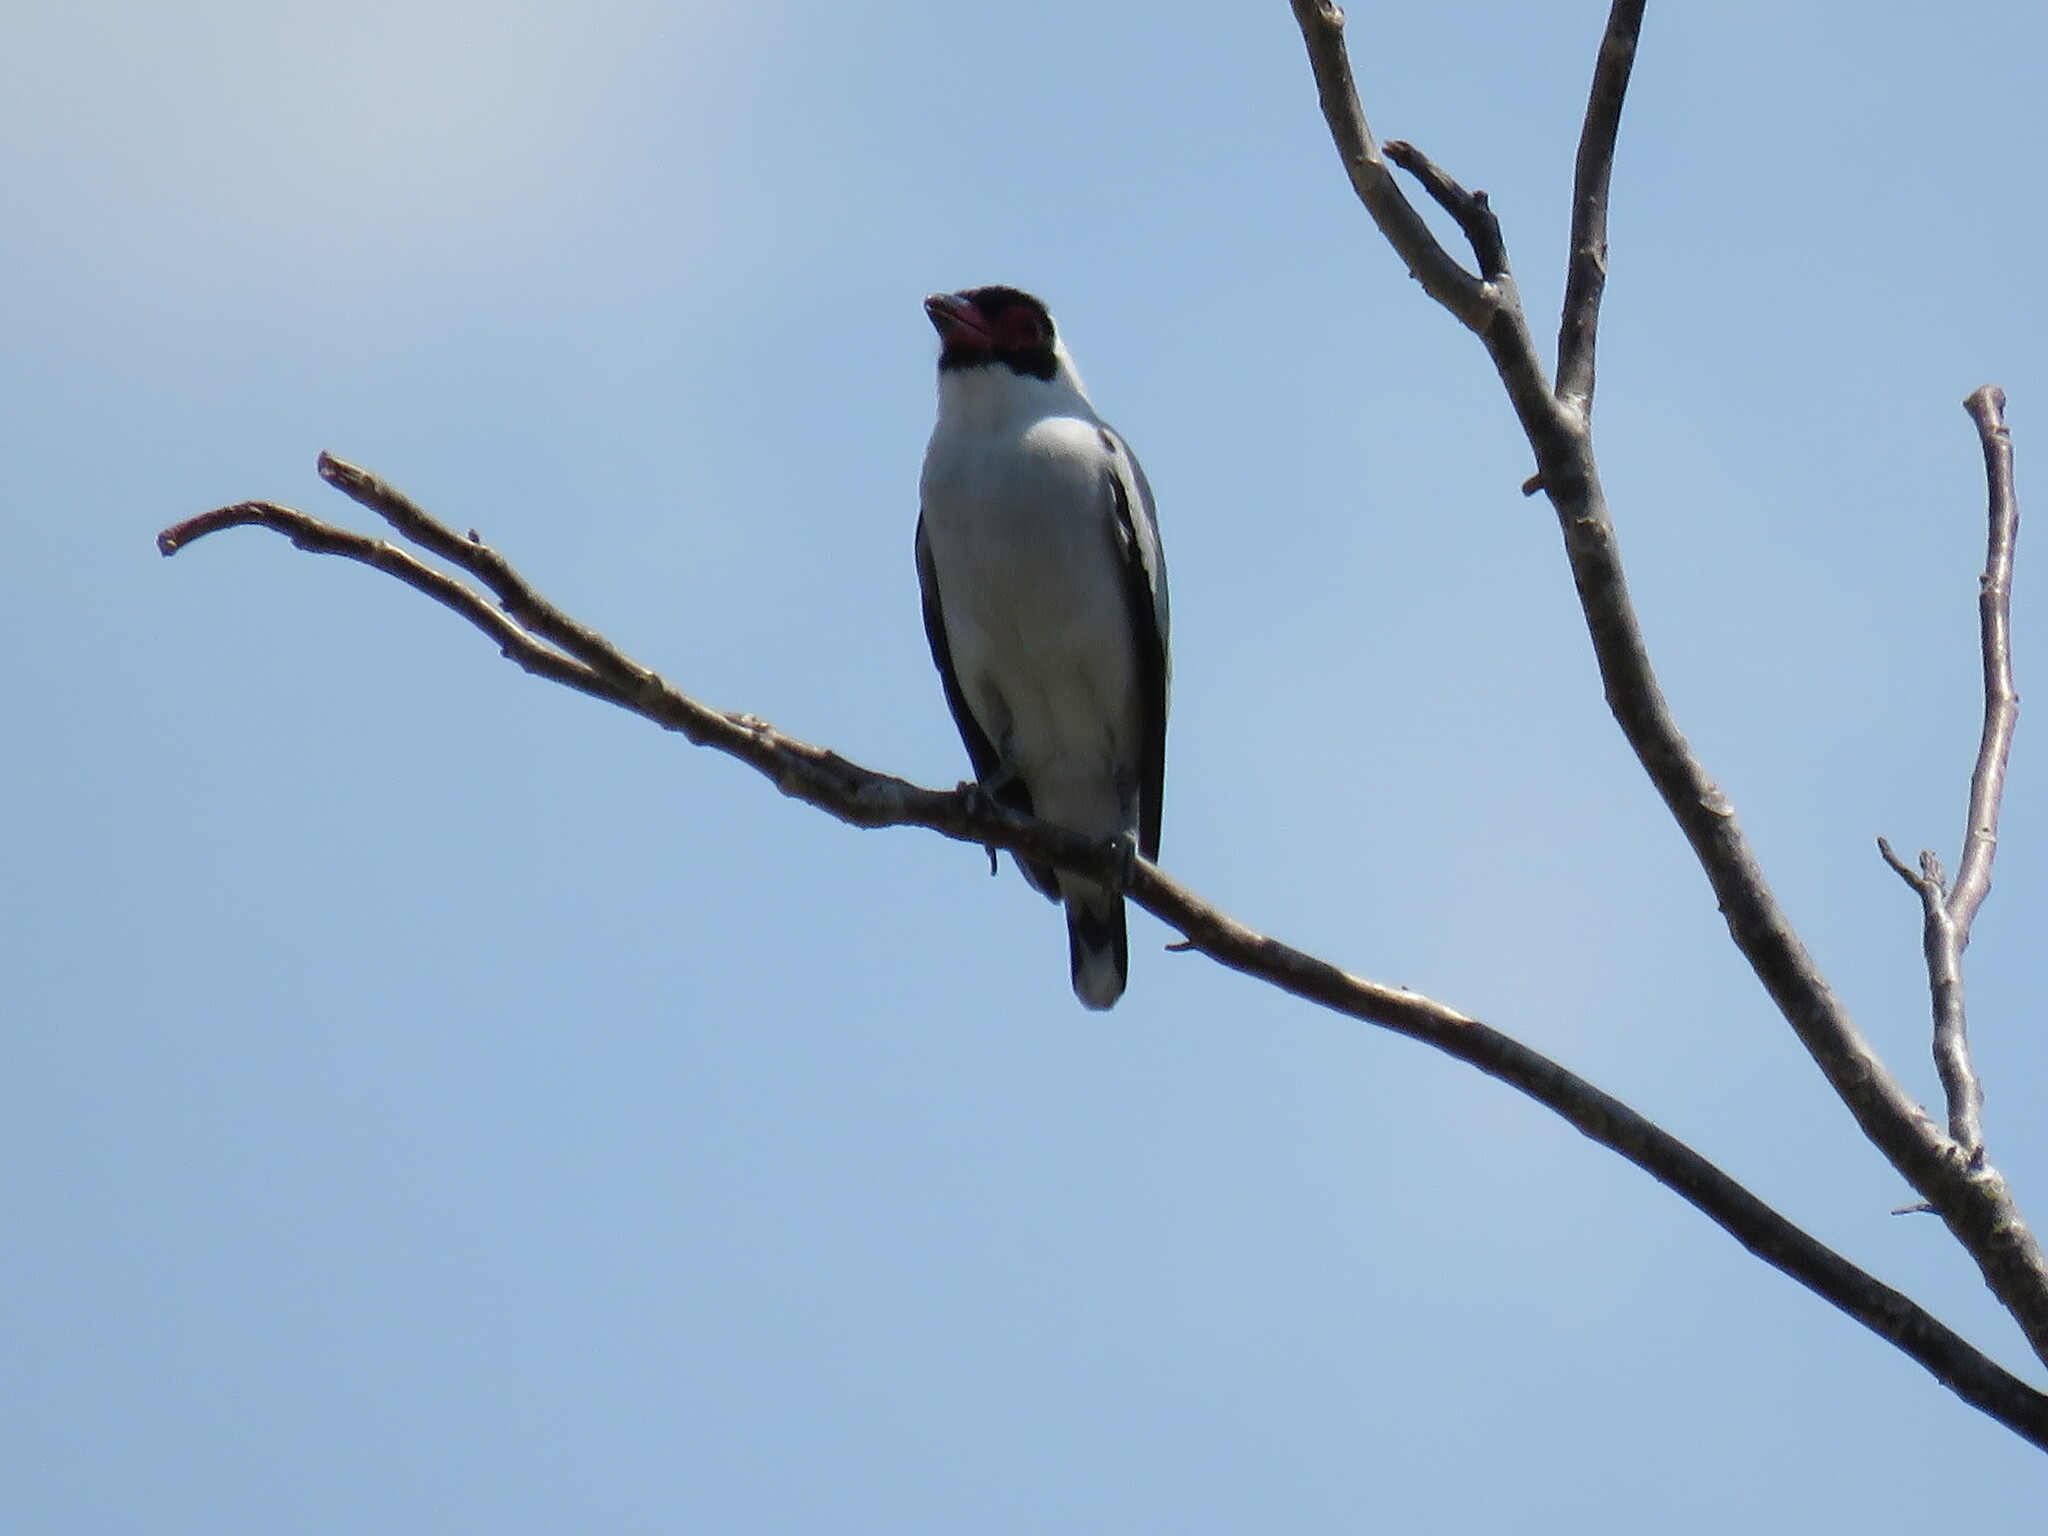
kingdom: Animalia
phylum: Chordata
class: Aves
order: Passeriformes
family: Cotingidae
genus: Tityra
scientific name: Tityra semifasciata
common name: Masked tityra
